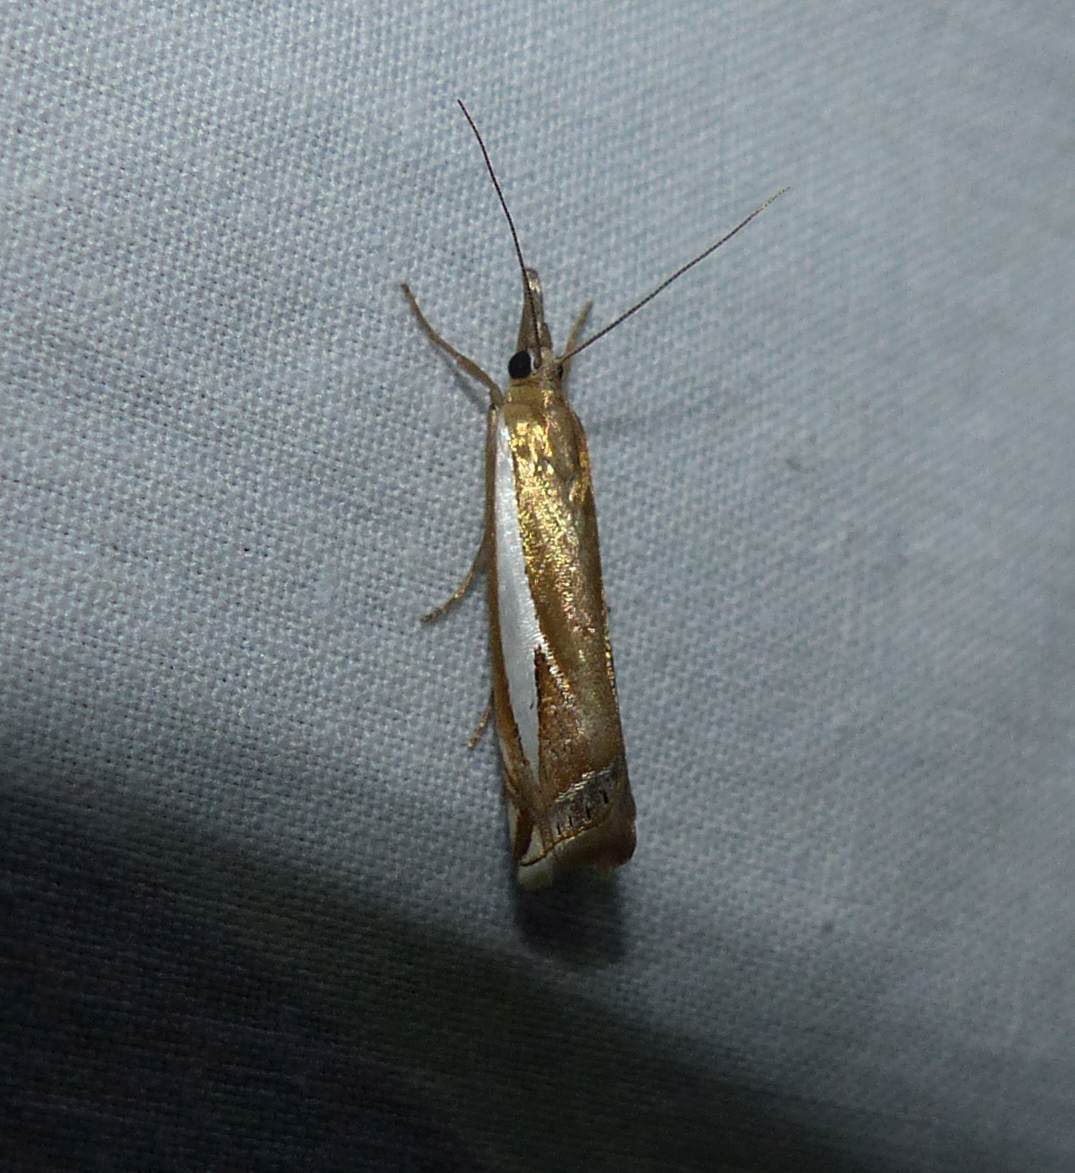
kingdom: Animalia
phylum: Arthropoda
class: Insecta
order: Lepidoptera
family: Crambidae
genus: Crambus
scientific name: Crambus bidens
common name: Forked grass-veneer
